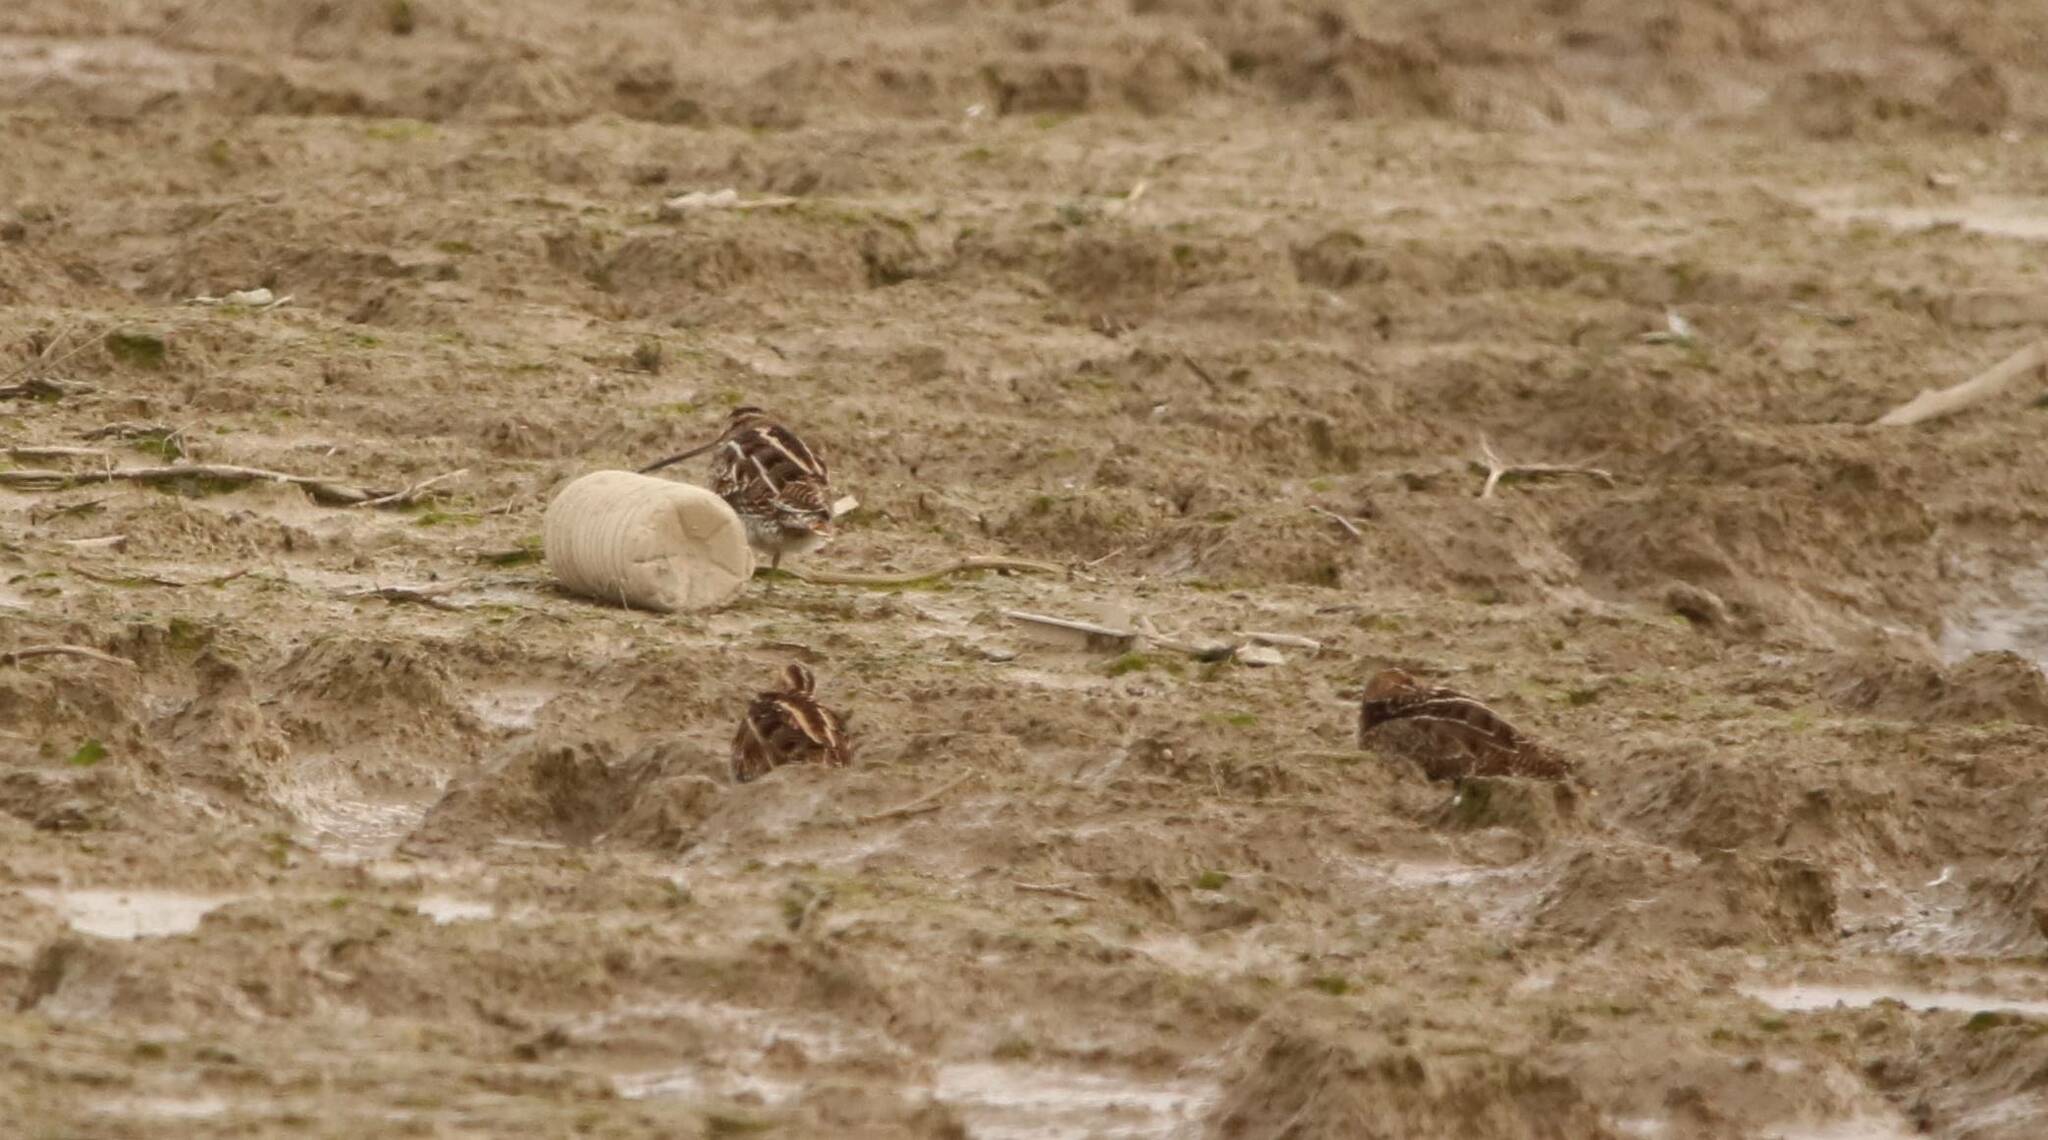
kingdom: Animalia
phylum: Chordata
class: Aves
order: Charadriiformes
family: Scolopacidae
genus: Gallinago
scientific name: Gallinago gallinago
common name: Common snipe
